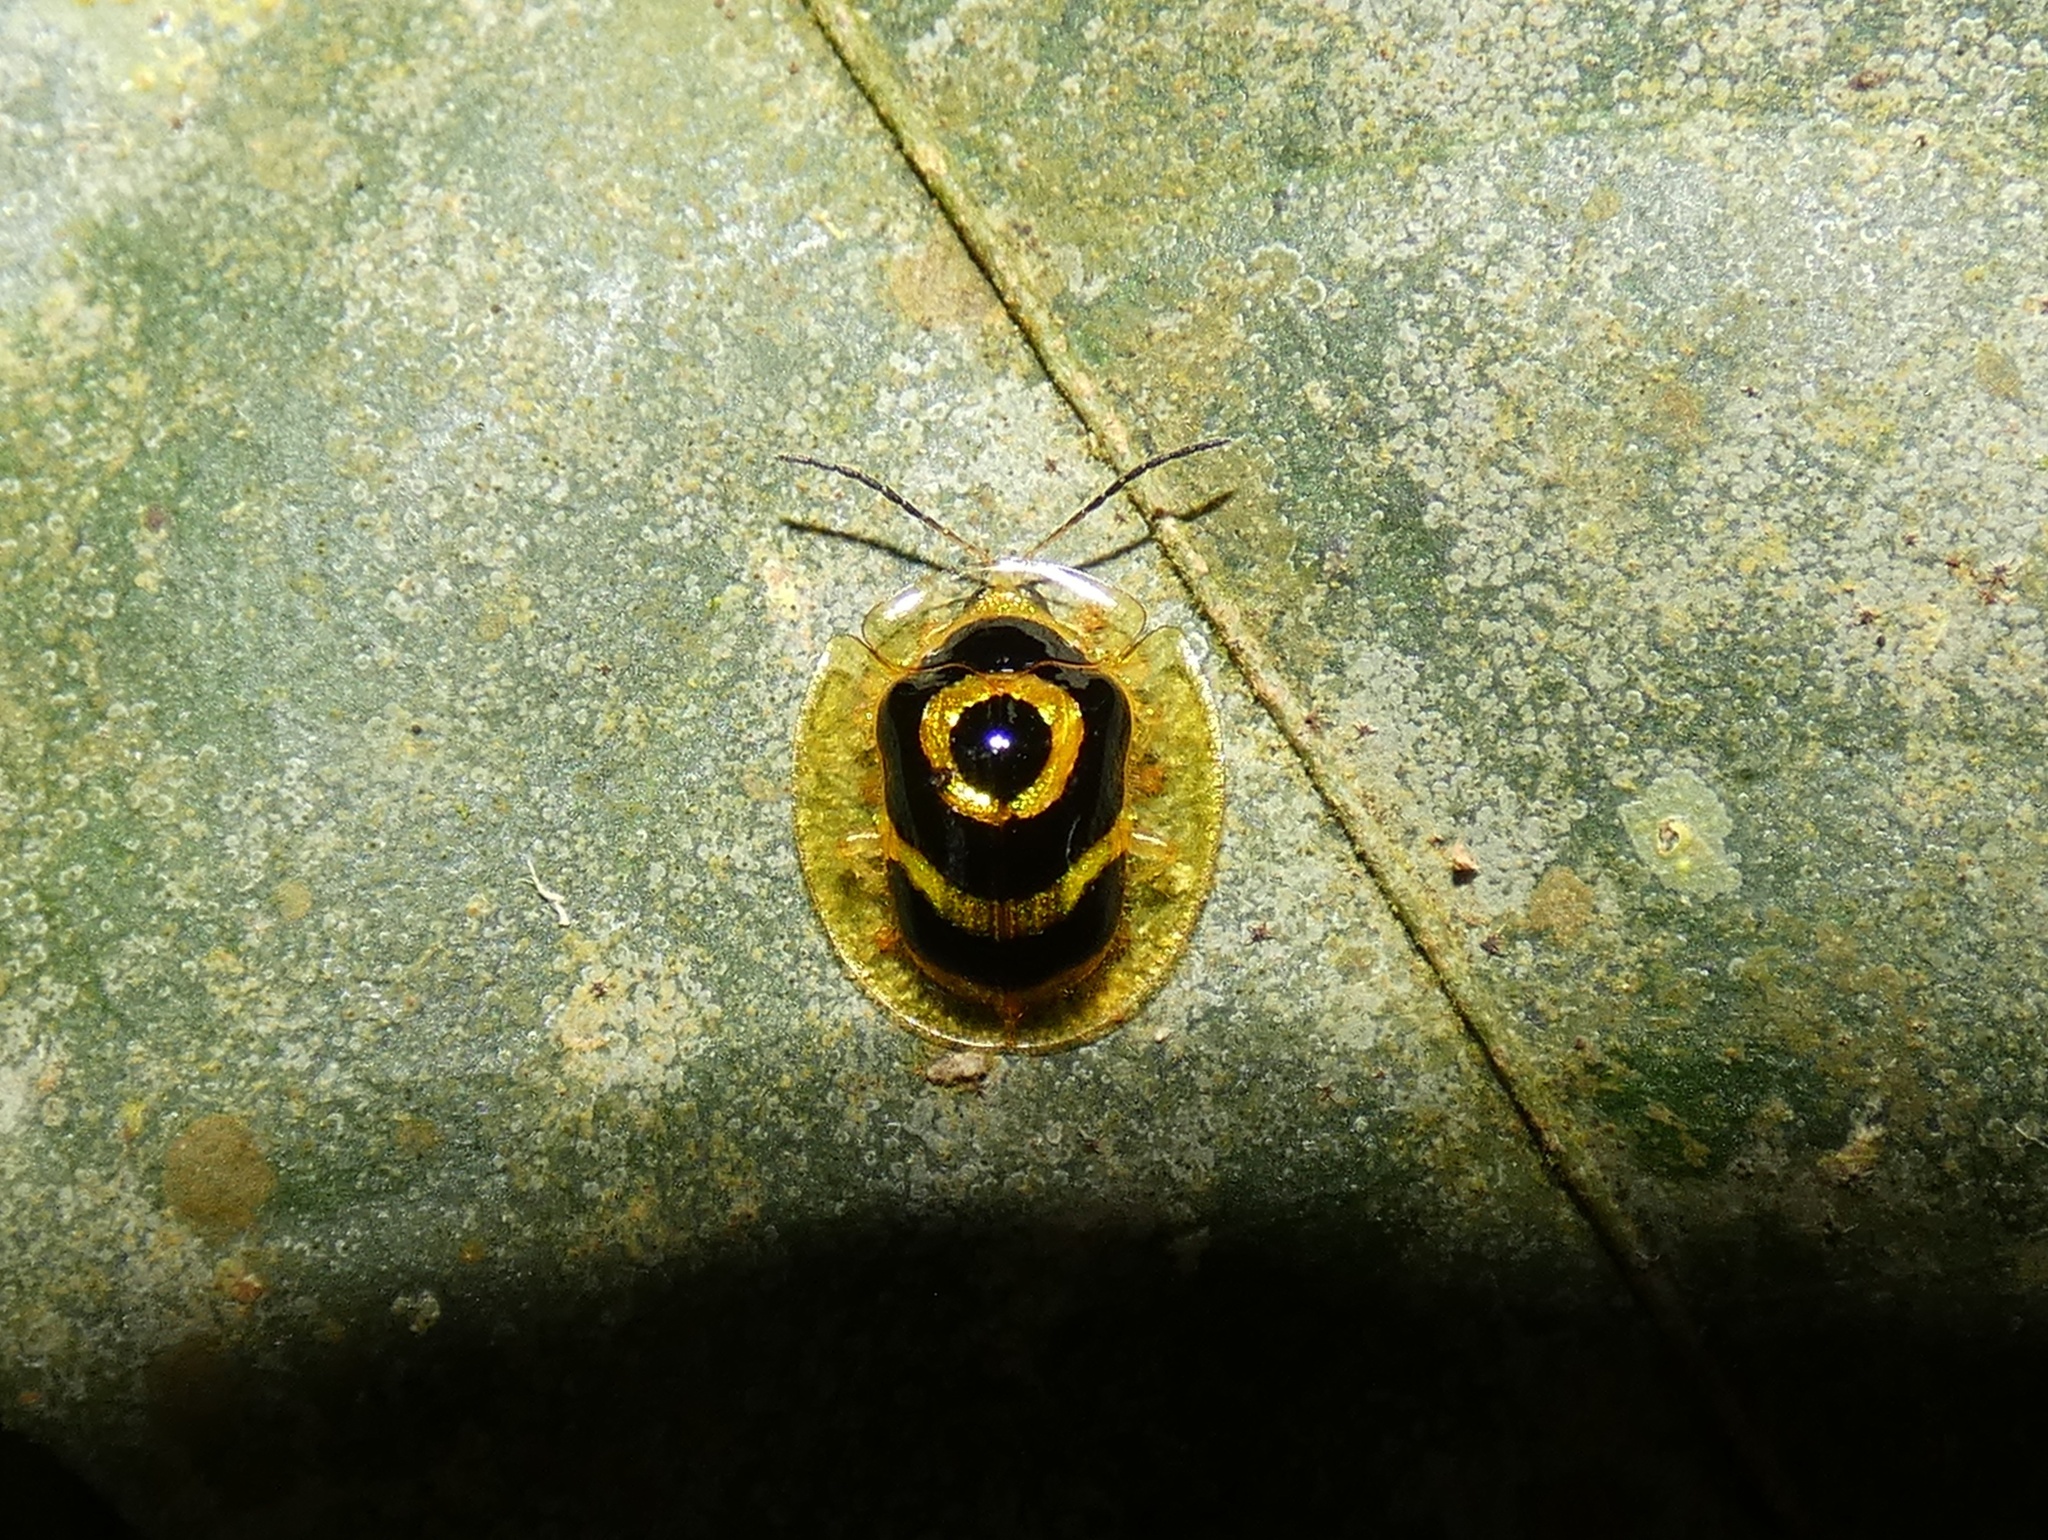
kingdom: Animalia
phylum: Arthropoda
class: Insecta
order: Coleoptera
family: Chrysomelidae
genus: Ischnocodia
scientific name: Ischnocodia annulus
